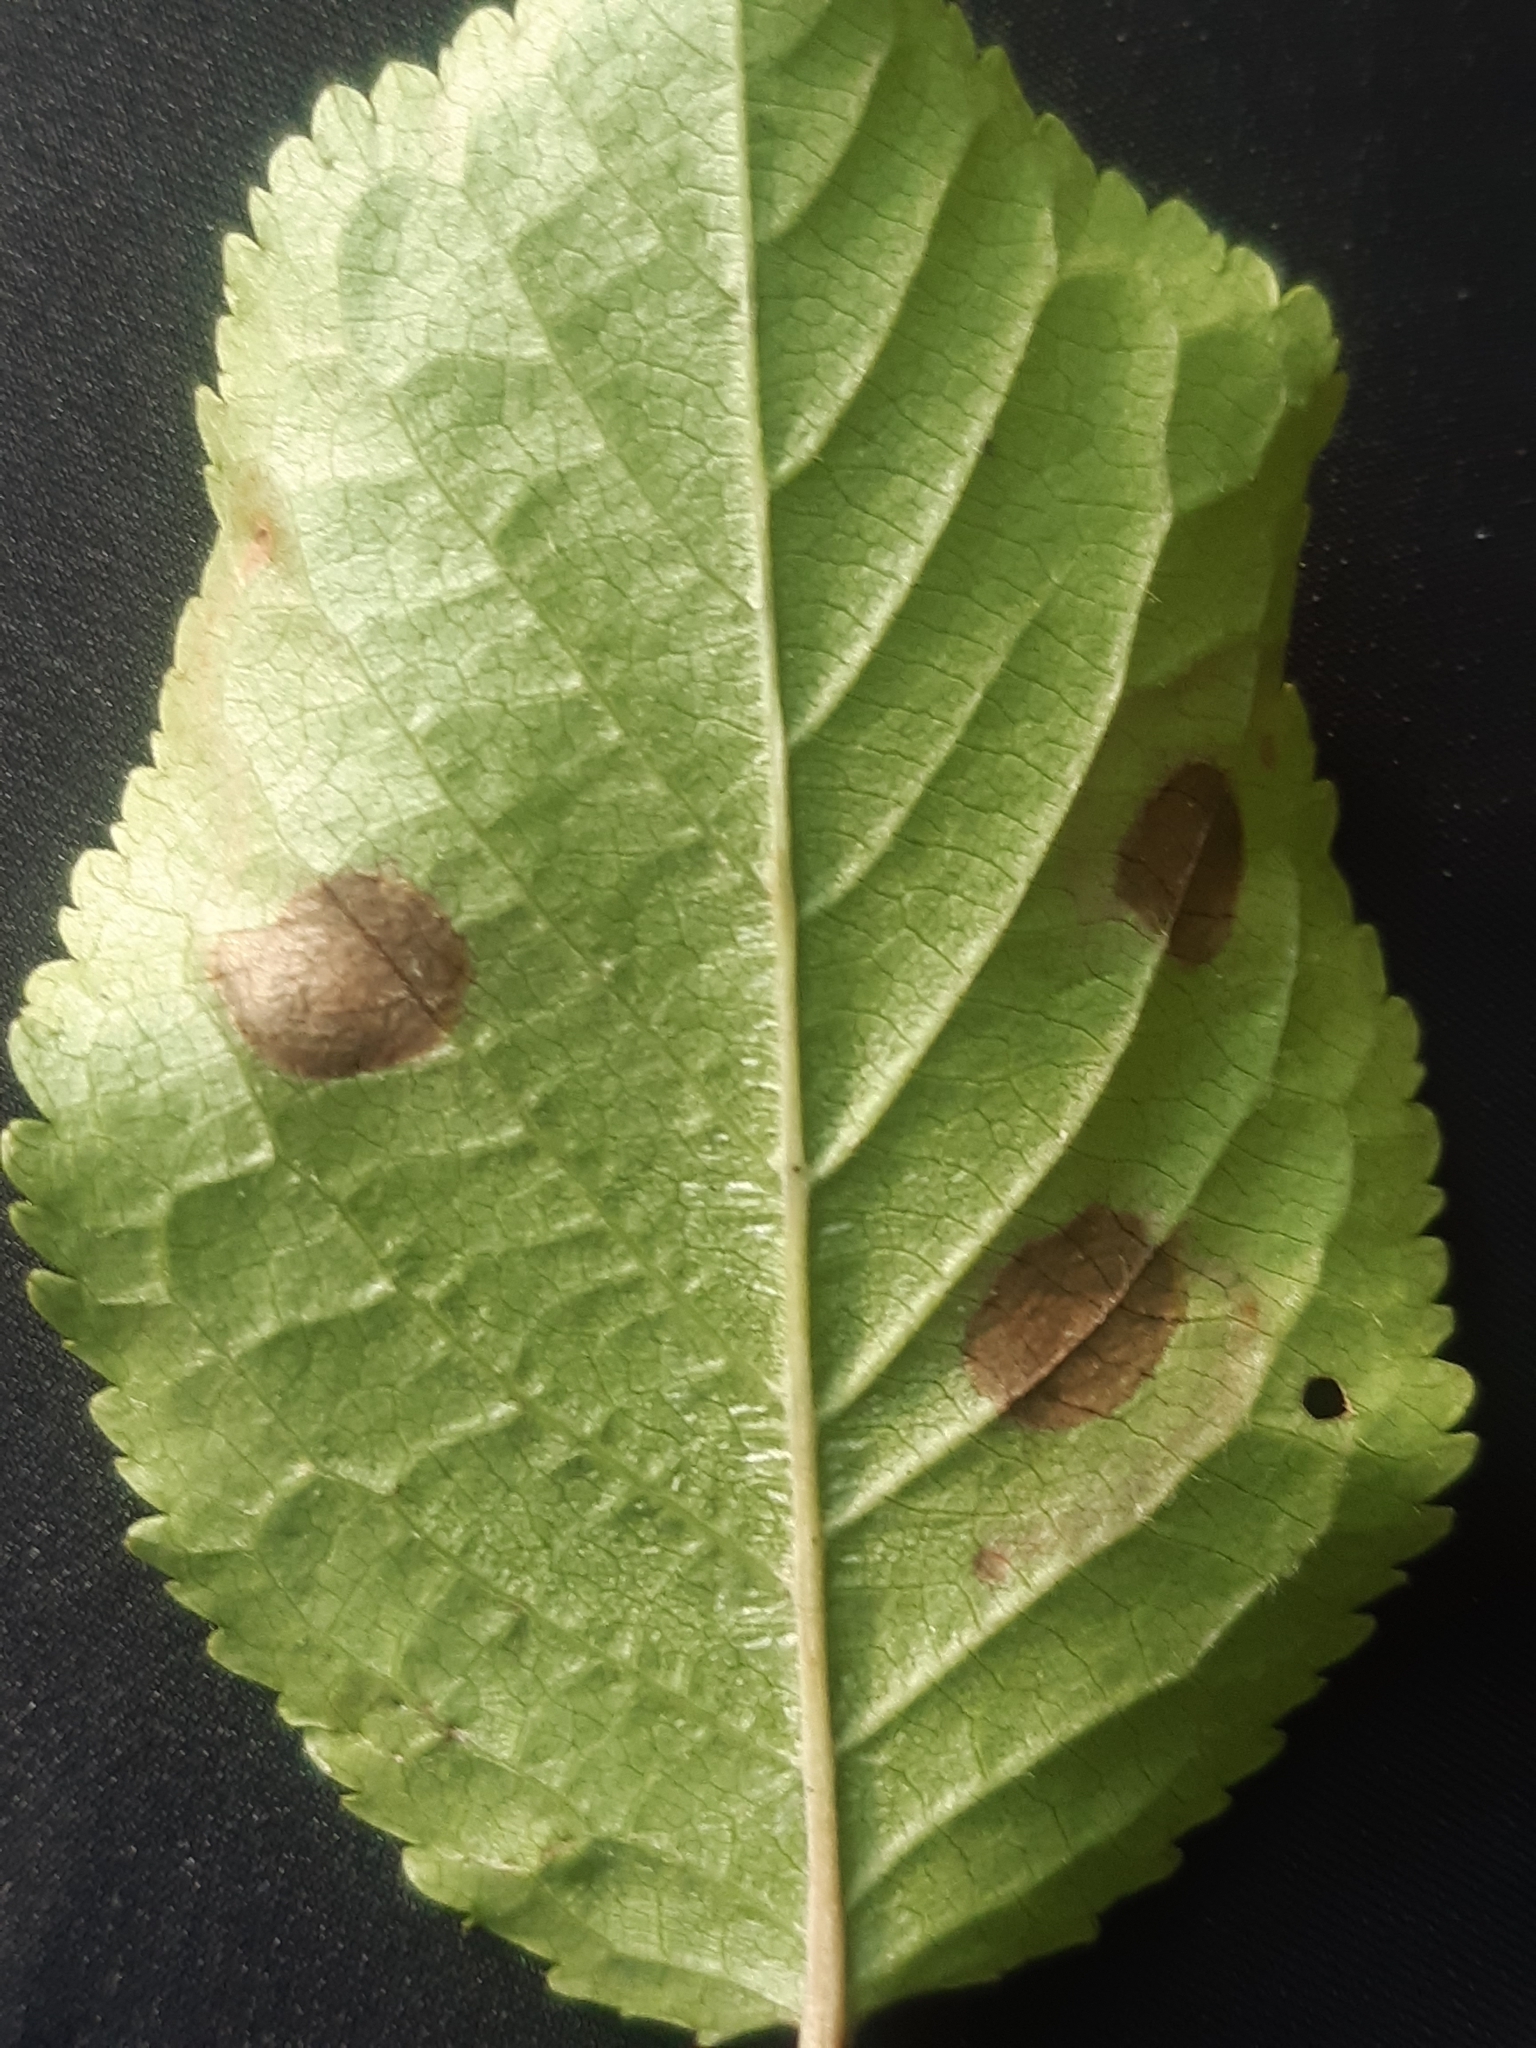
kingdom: Animalia
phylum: Arthropoda
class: Insecta
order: Lepidoptera
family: Nepticulidae
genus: Stigmella
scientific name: Stigmella prunetorum
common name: Scarce sloe pigmy
